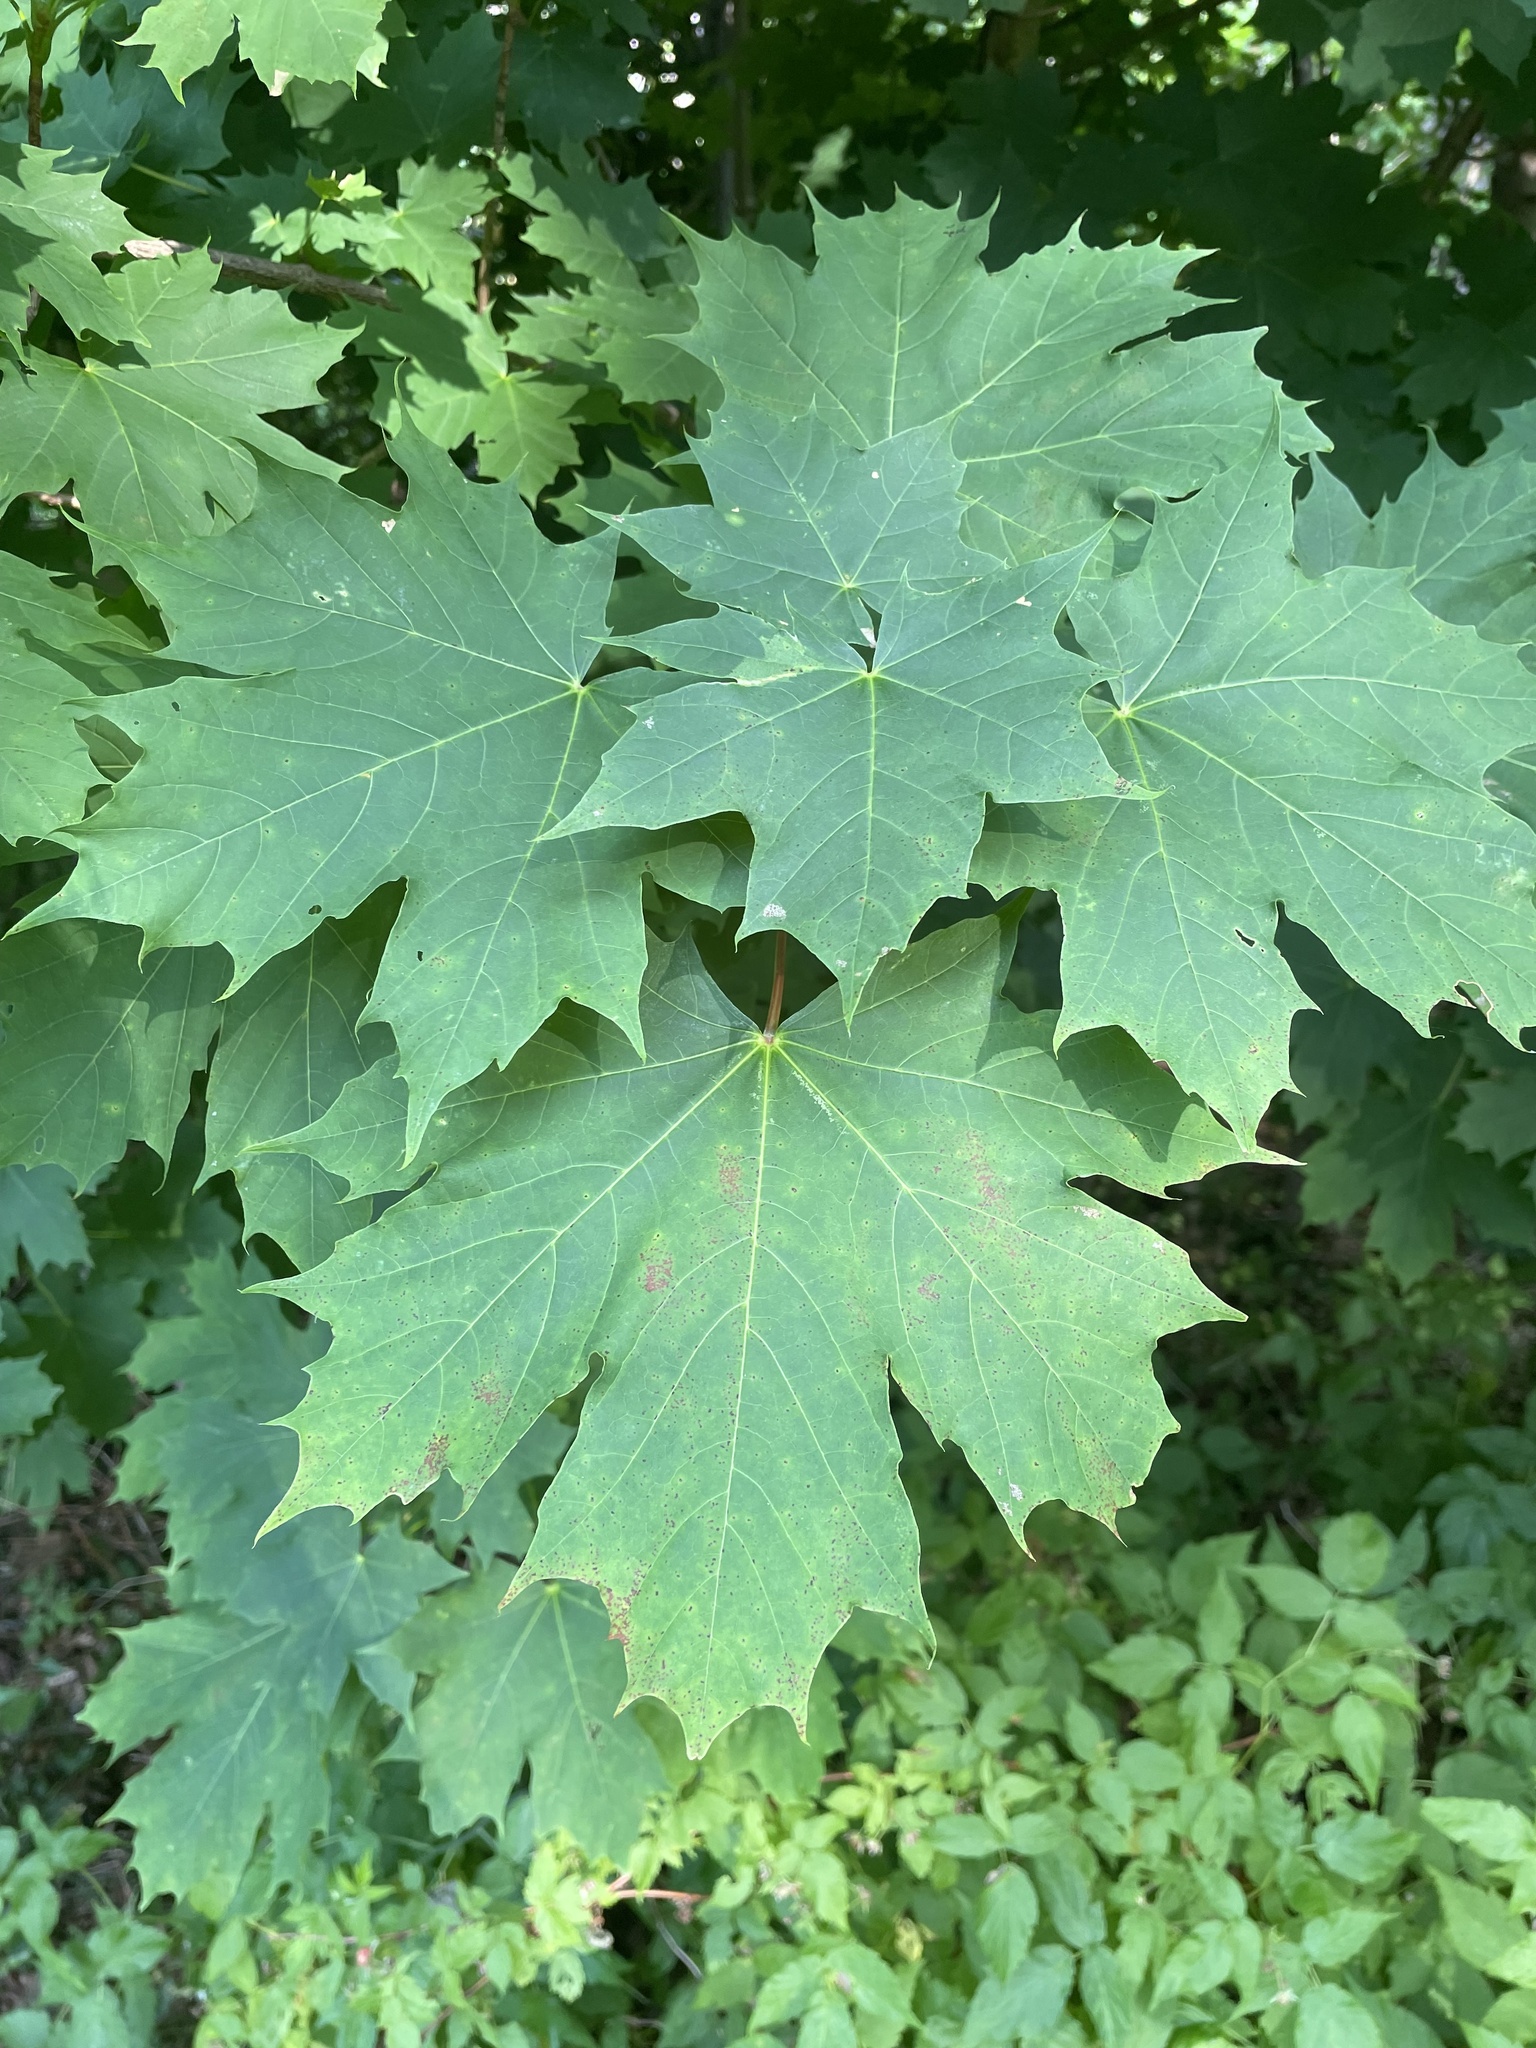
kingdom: Plantae
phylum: Tracheophyta
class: Magnoliopsida
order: Sapindales
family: Sapindaceae
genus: Acer
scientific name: Acer platanoides
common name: Norway maple
